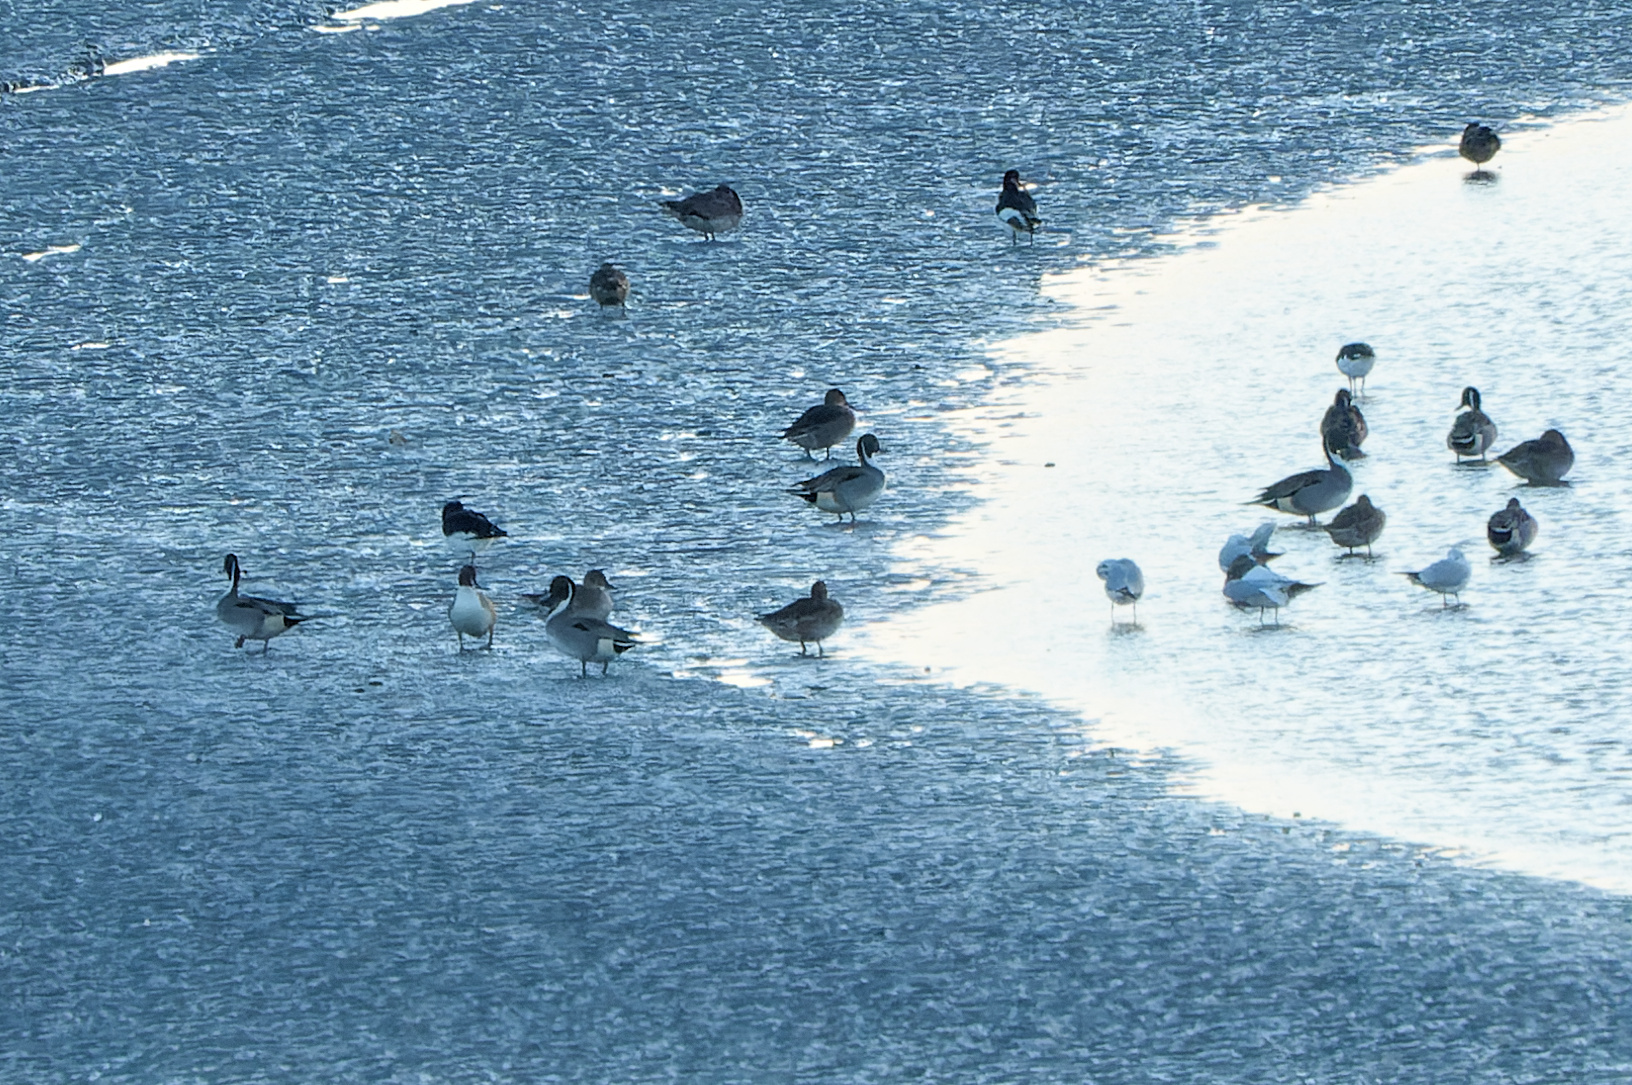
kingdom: Animalia
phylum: Chordata
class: Aves
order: Anseriformes
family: Anatidae
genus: Anas
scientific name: Anas acuta
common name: Northern pintail
